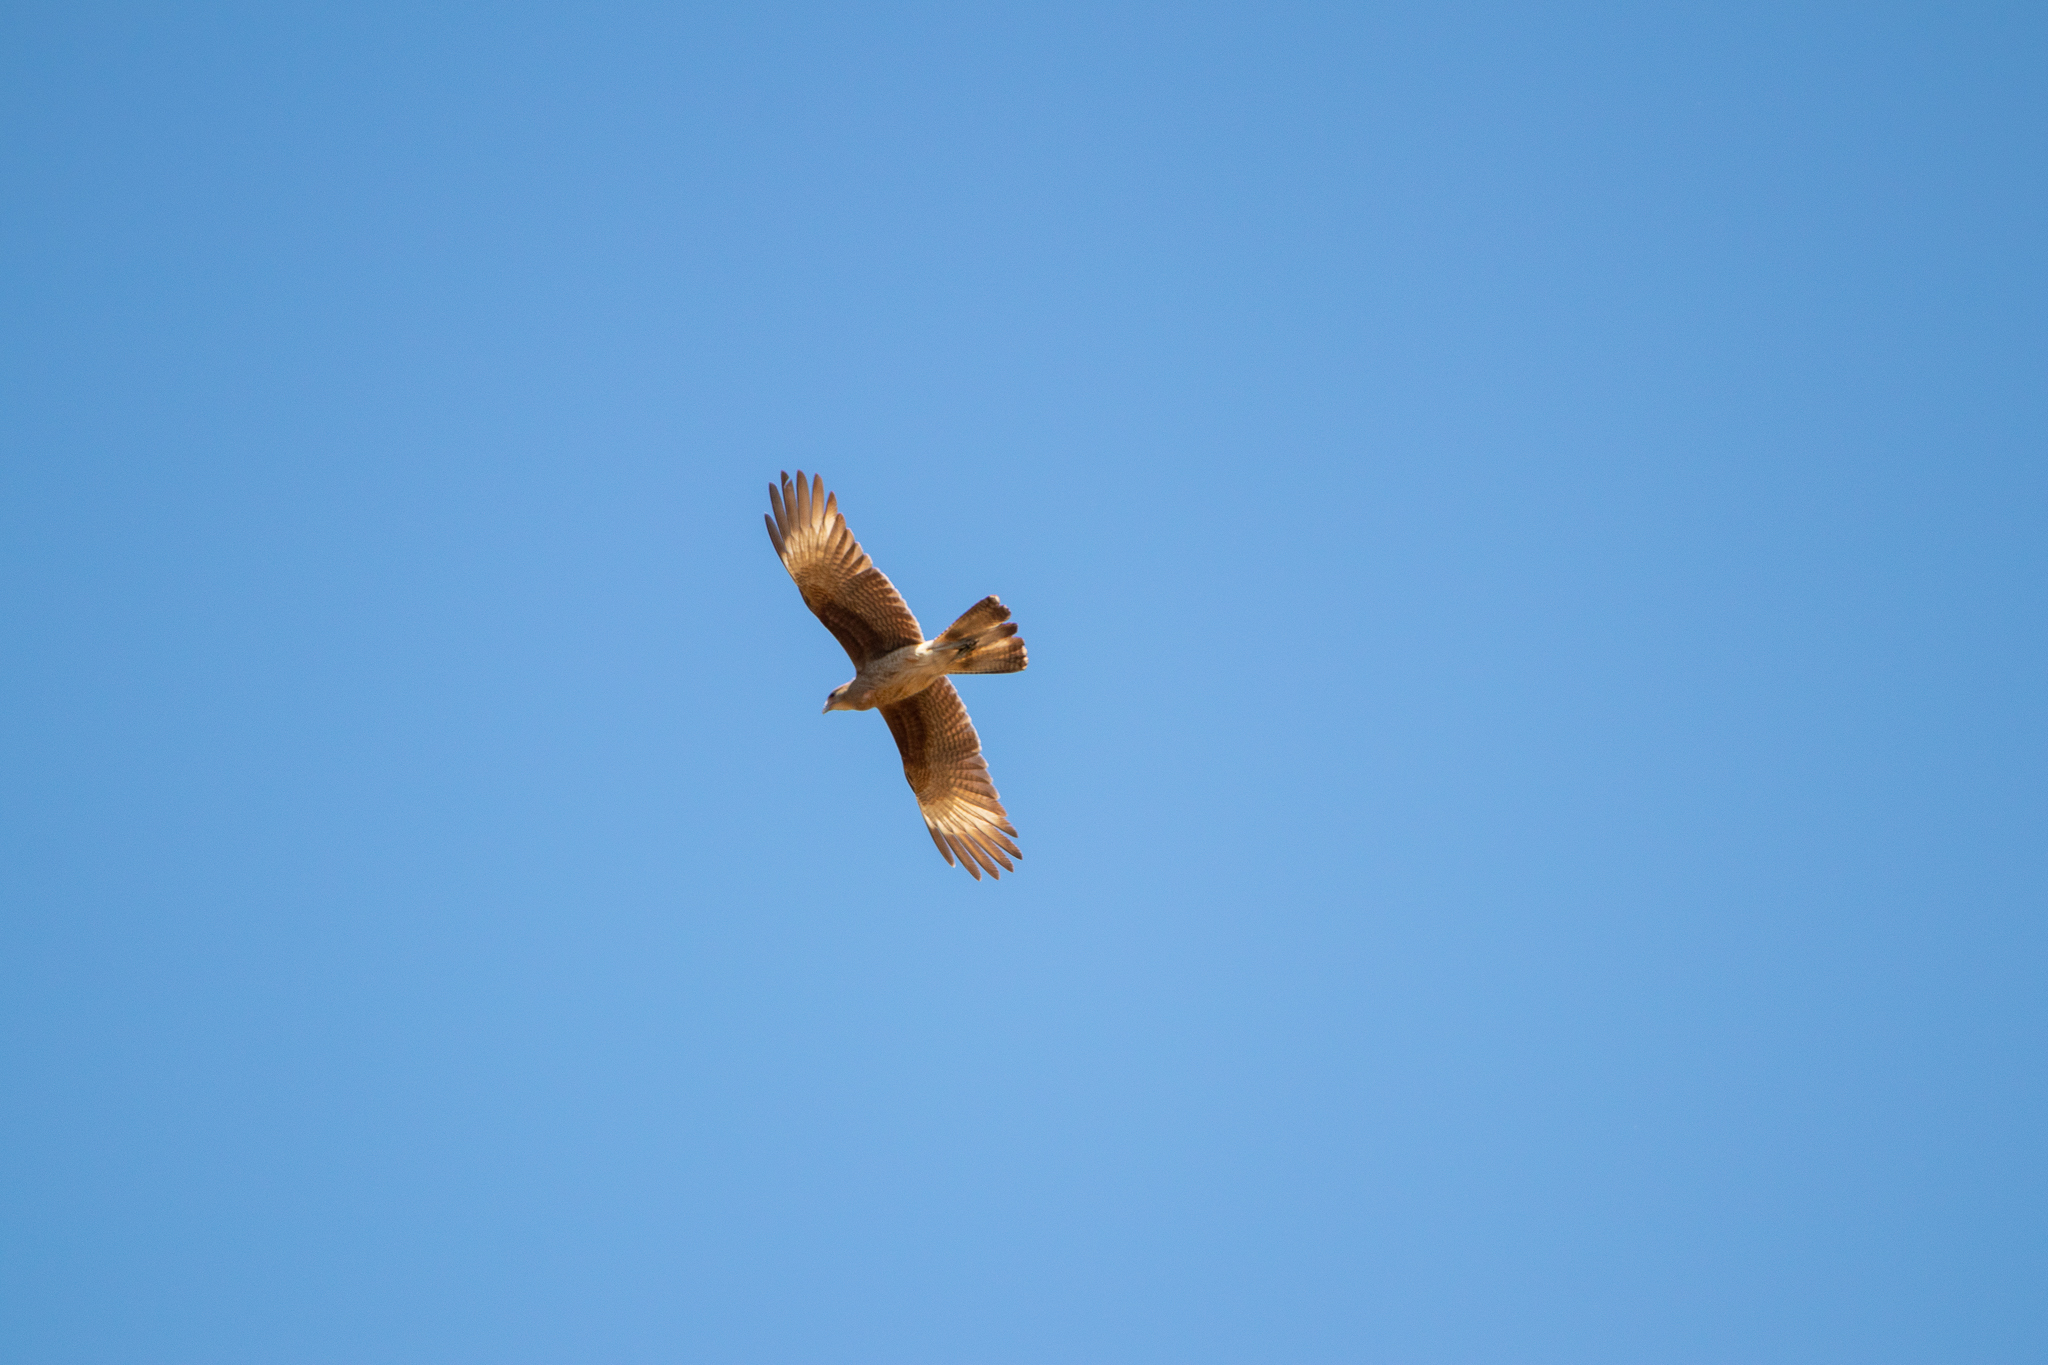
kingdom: Animalia
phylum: Chordata
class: Aves
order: Falconiformes
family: Falconidae
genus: Daptrius
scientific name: Daptrius
